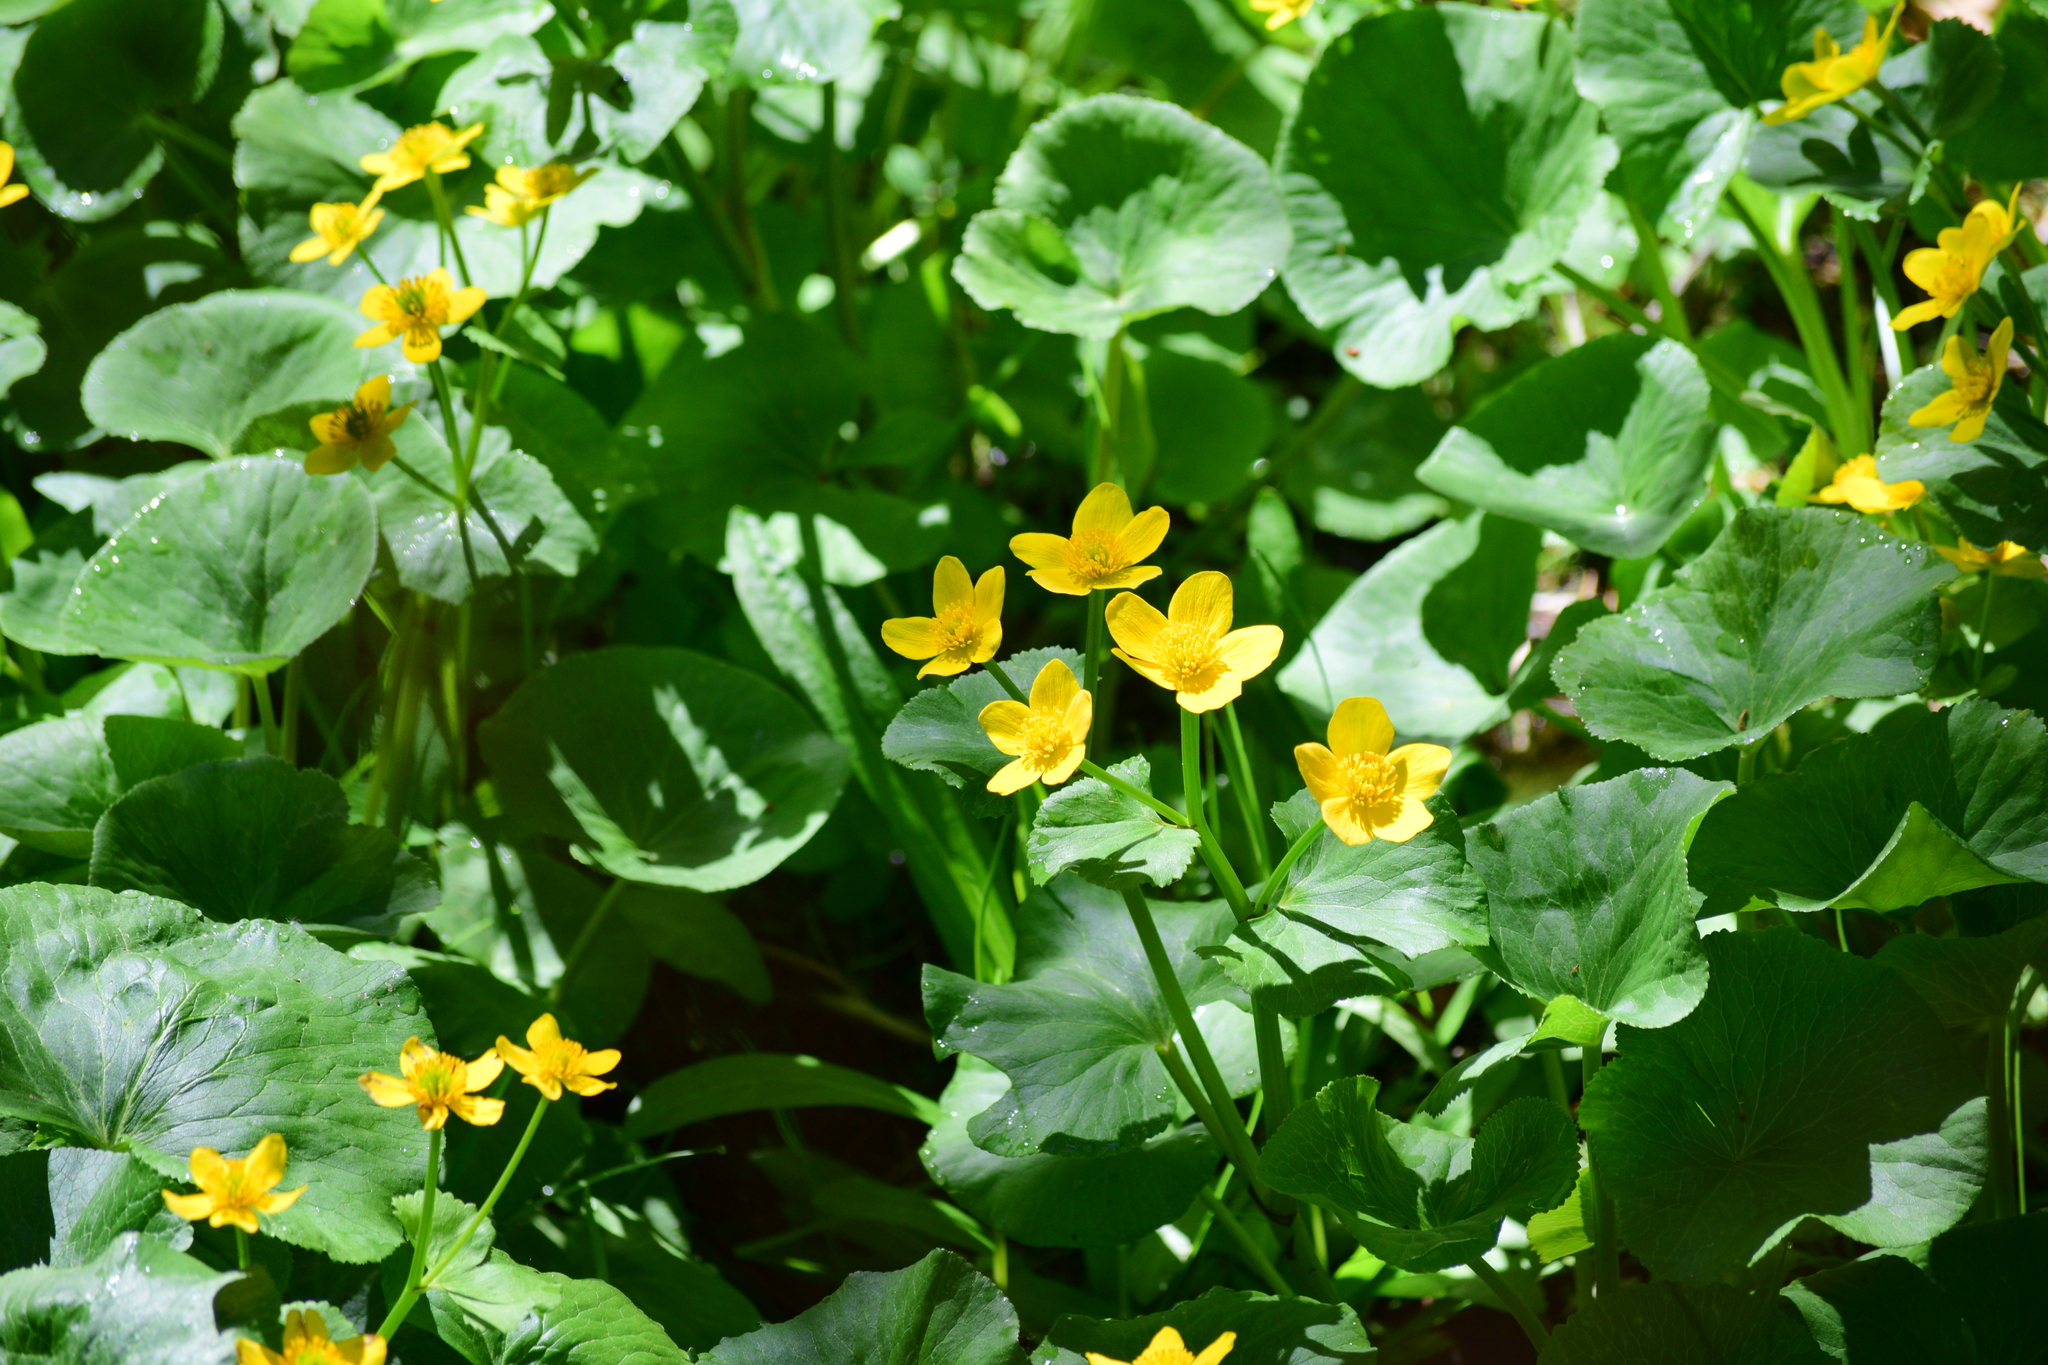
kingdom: Plantae
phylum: Tracheophyta
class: Magnoliopsida
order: Ranunculales
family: Ranunculaceae
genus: Caltha
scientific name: Caltha palustris
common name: Marsh marigold
